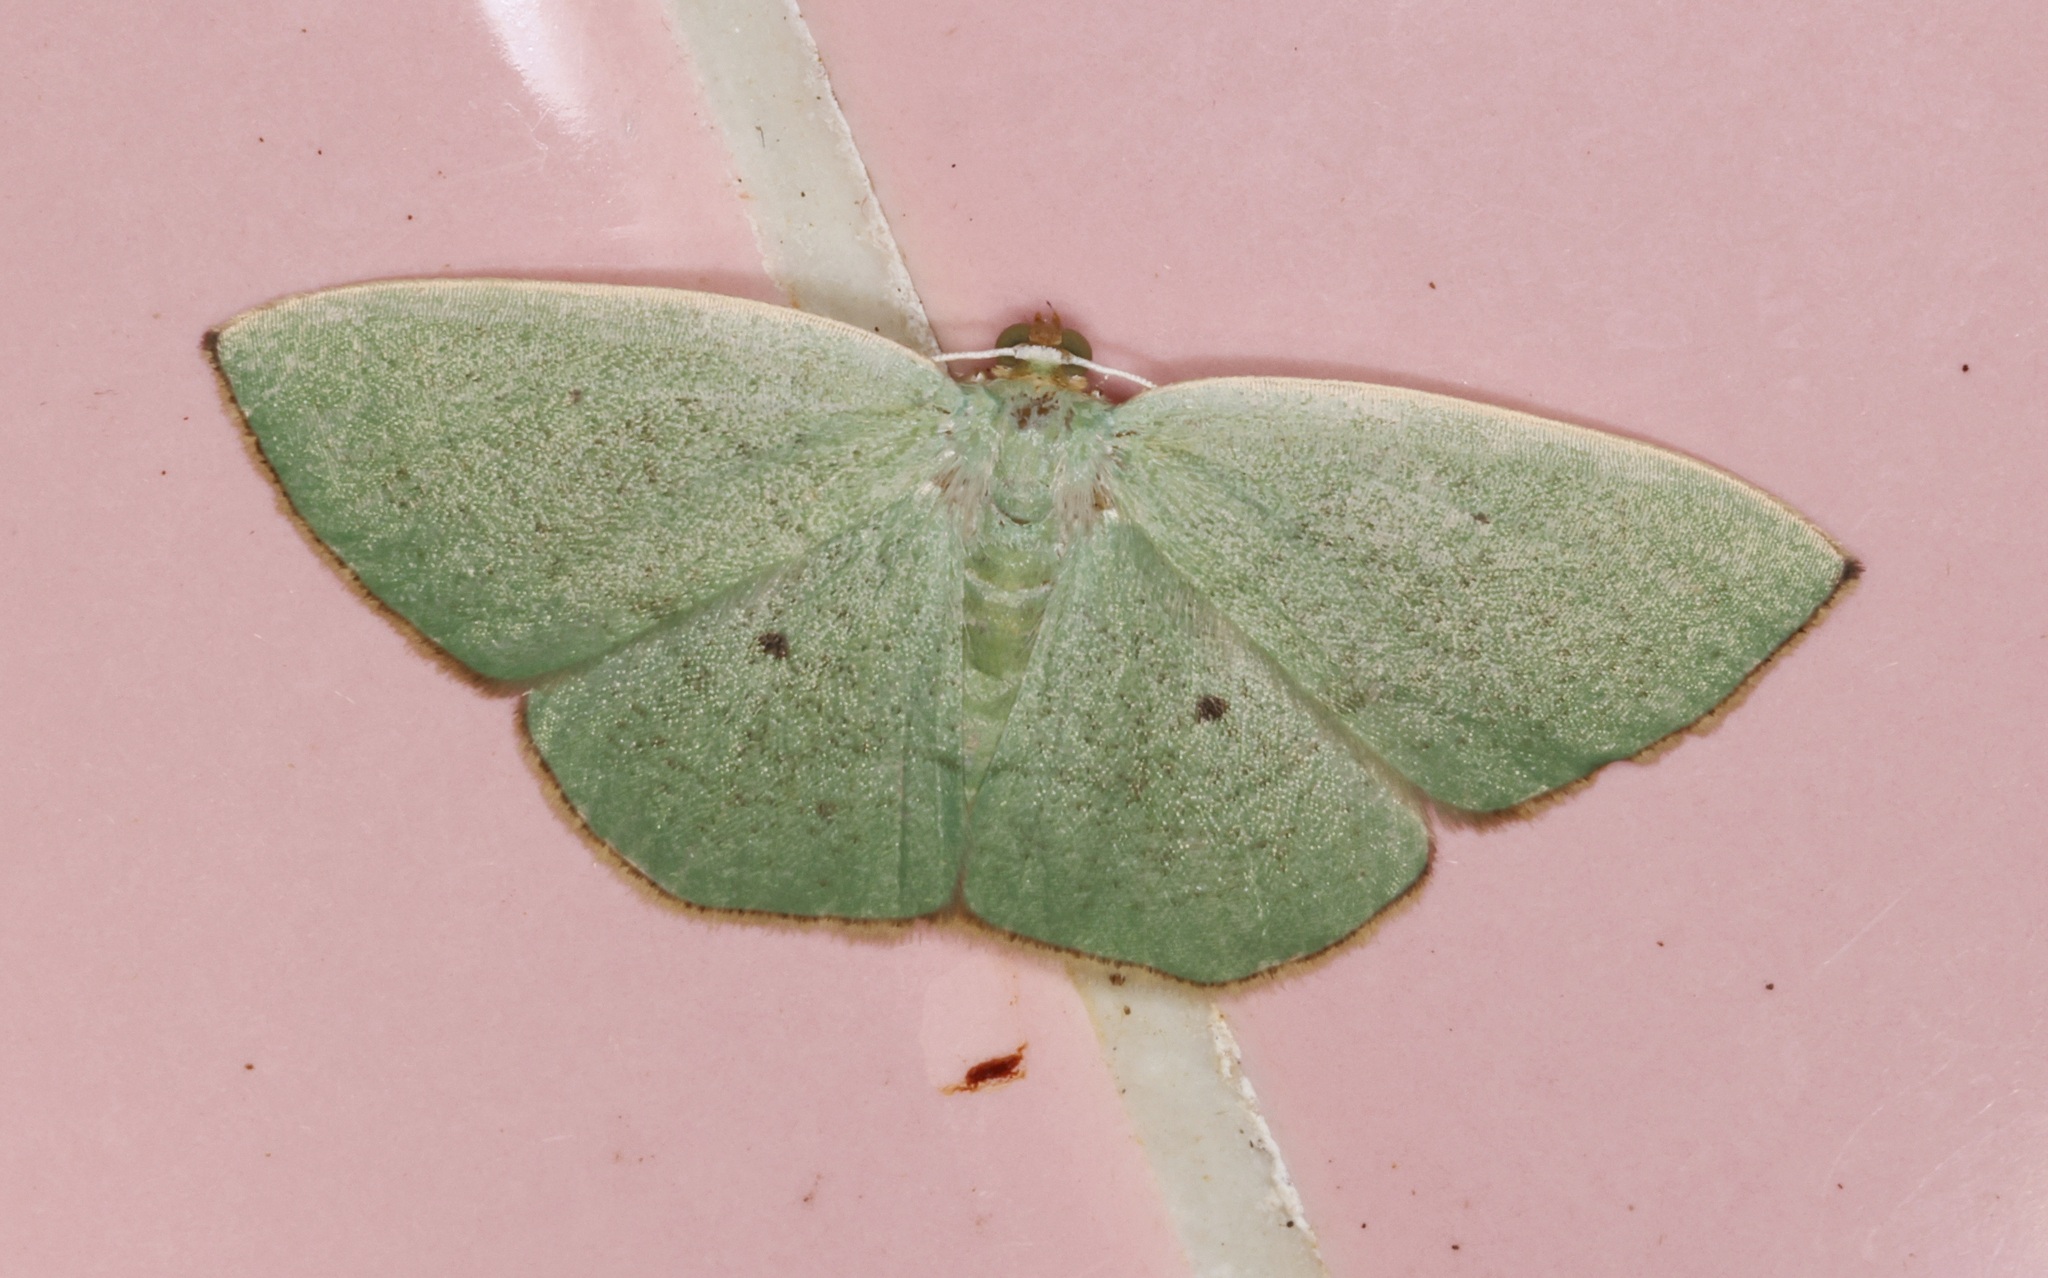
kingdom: Animalia
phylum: Arthropoda
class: Insecta
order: Lepidoptera
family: Geometridae
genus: Pseudothalera
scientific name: Pseudothalera carolinae
